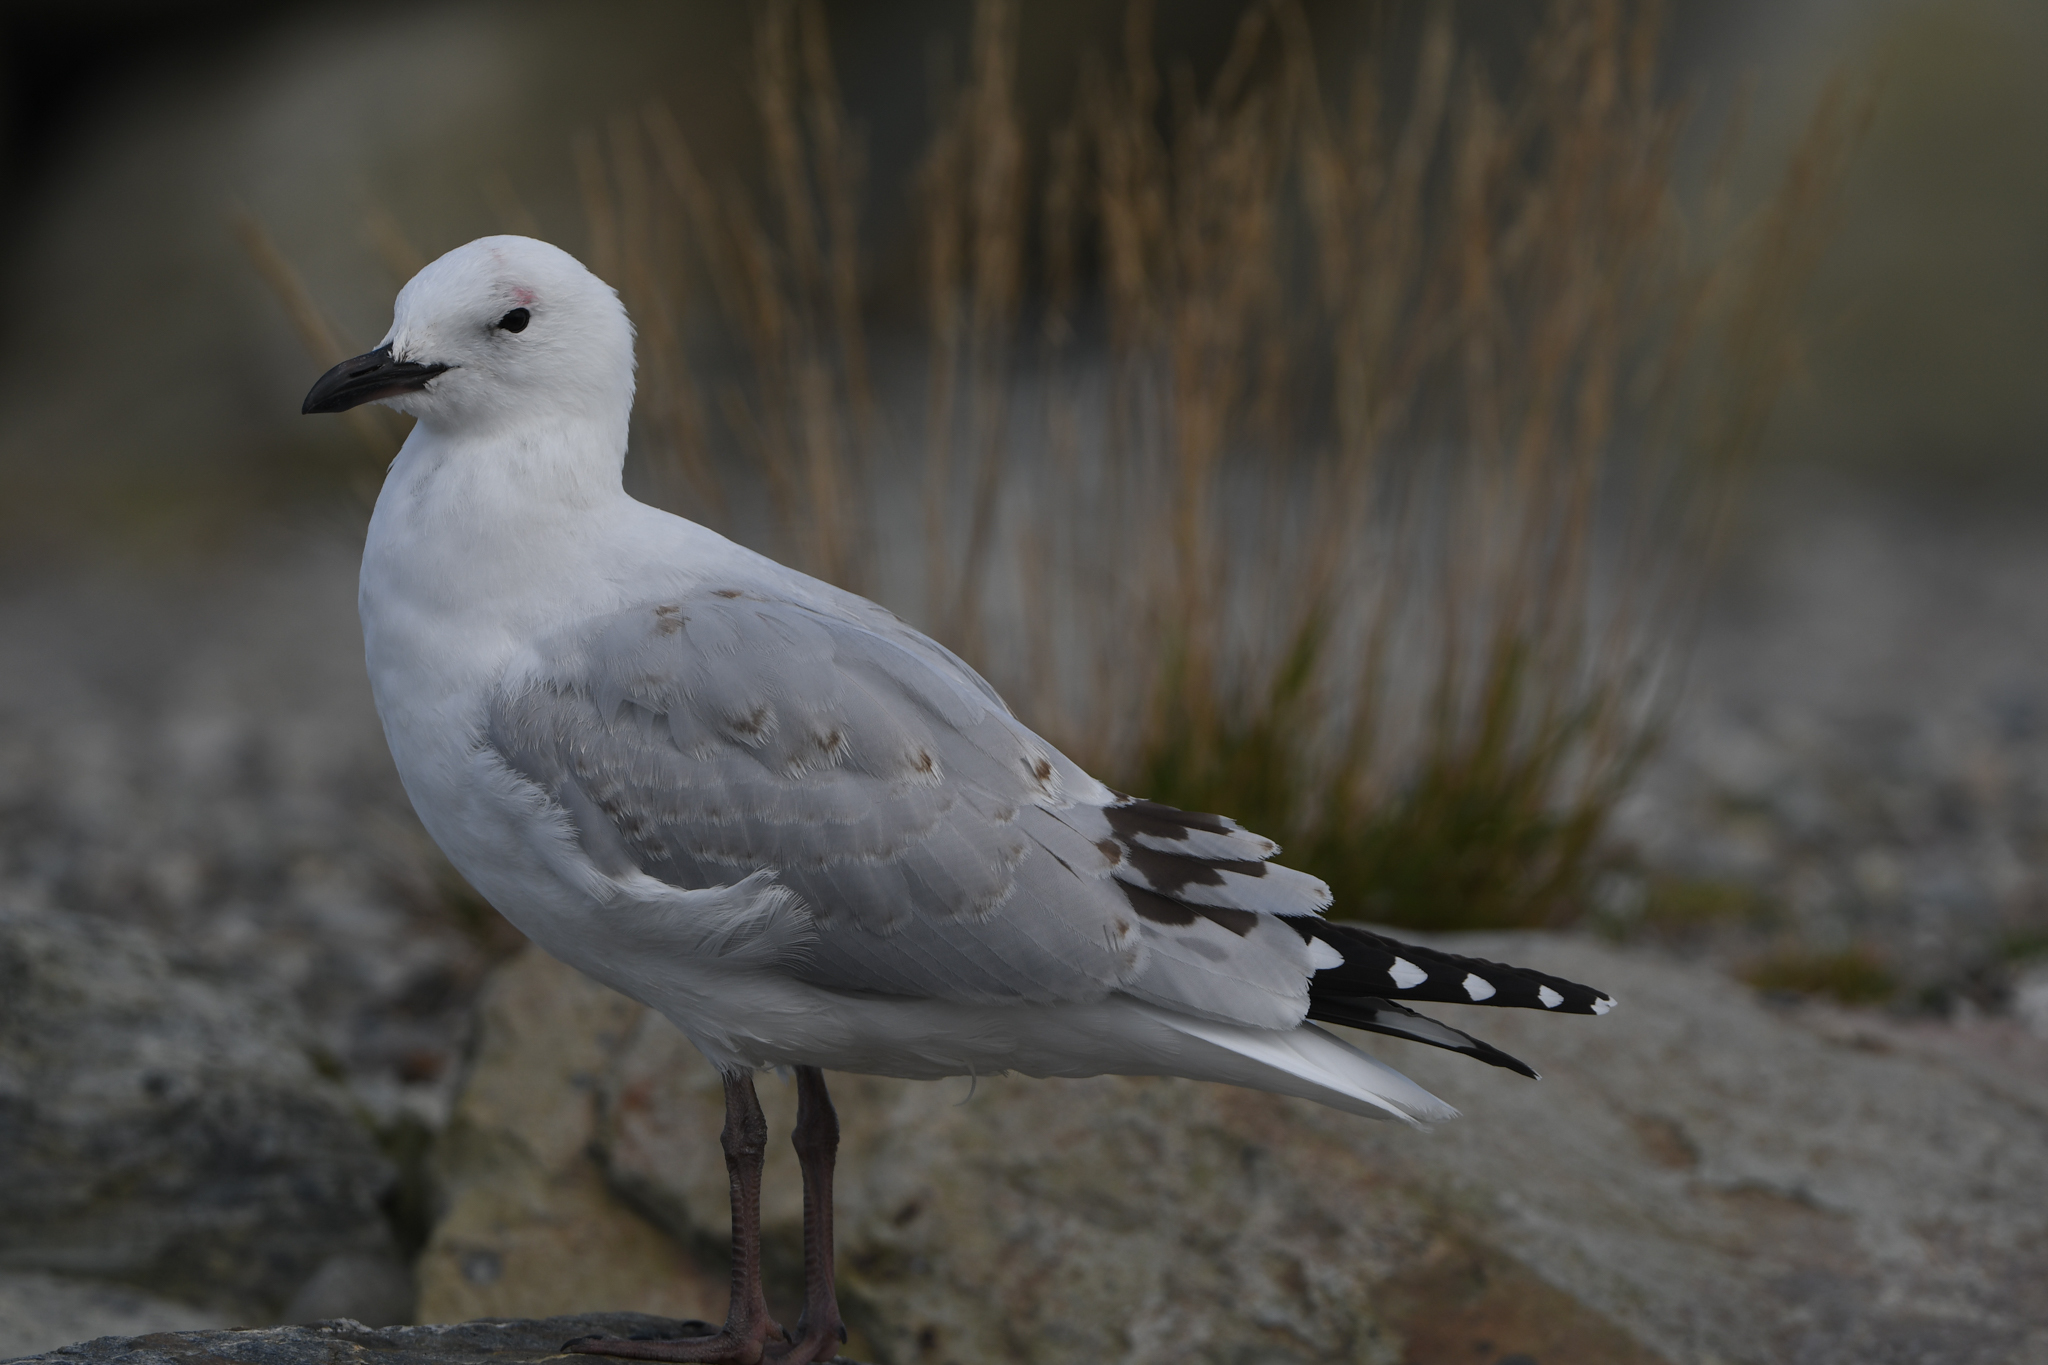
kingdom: Animalia
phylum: Chordata
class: Aves
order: Charadriiformes
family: Laridae
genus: Chroicocephalus
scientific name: Chroicocephalus novaehollandiae
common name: Silver gull
